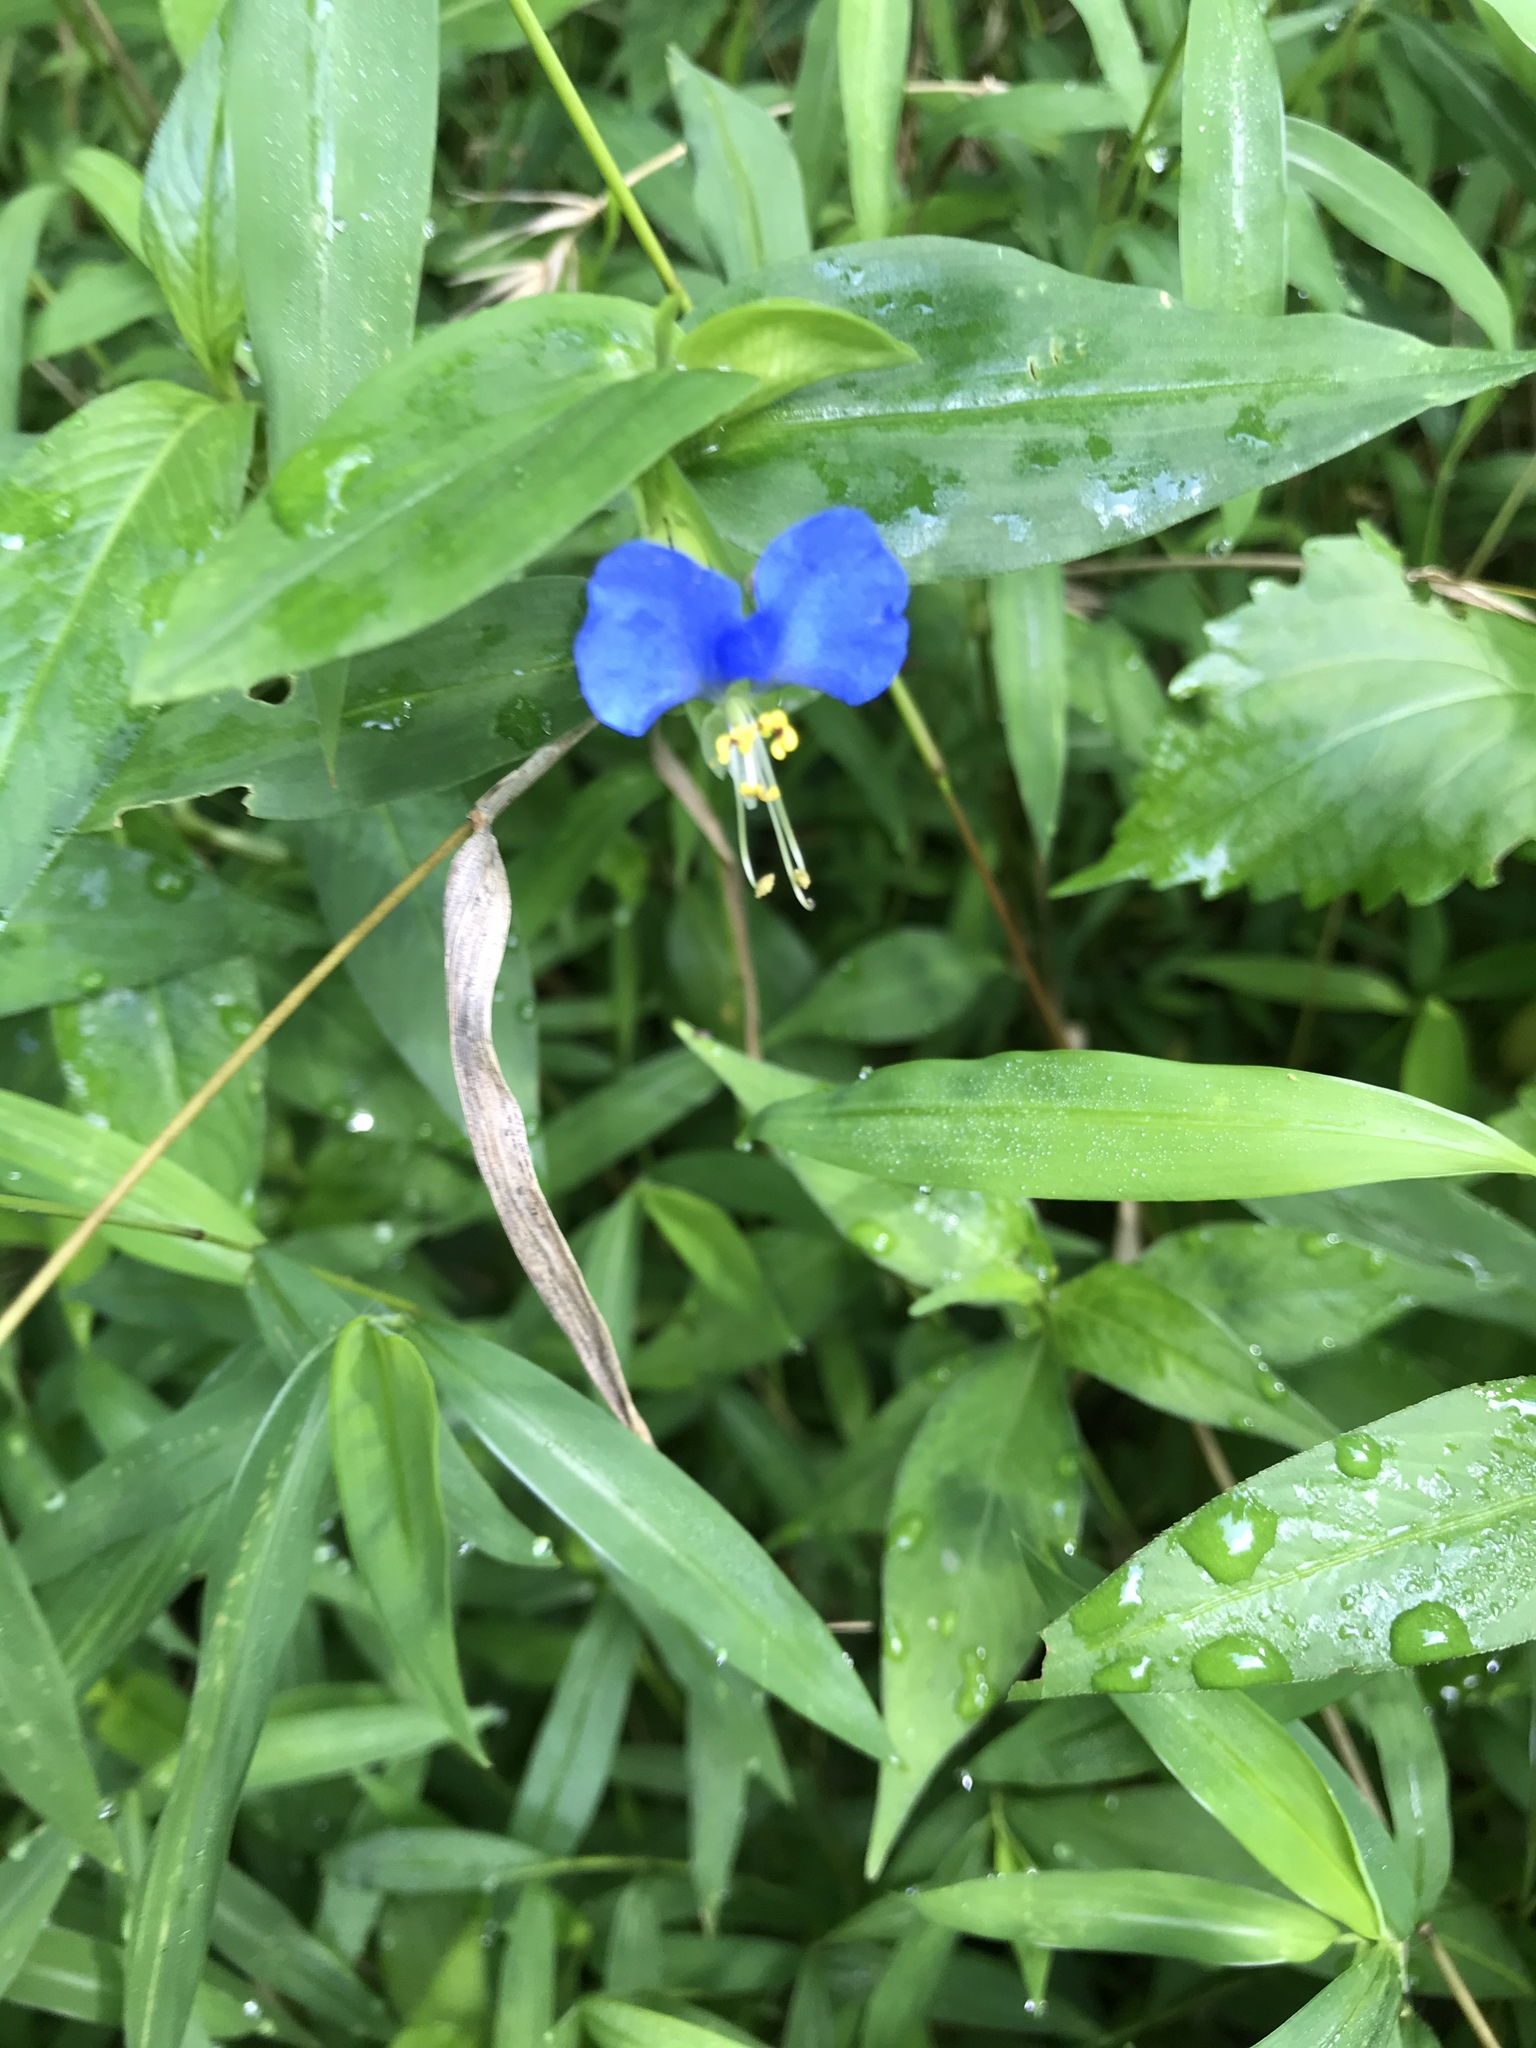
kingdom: Plantae
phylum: Tracheophyta
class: Liliopsida
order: Commelinales
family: Commelinaceae
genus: Commelina
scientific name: Commelina communis
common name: Asiatic dayflower
